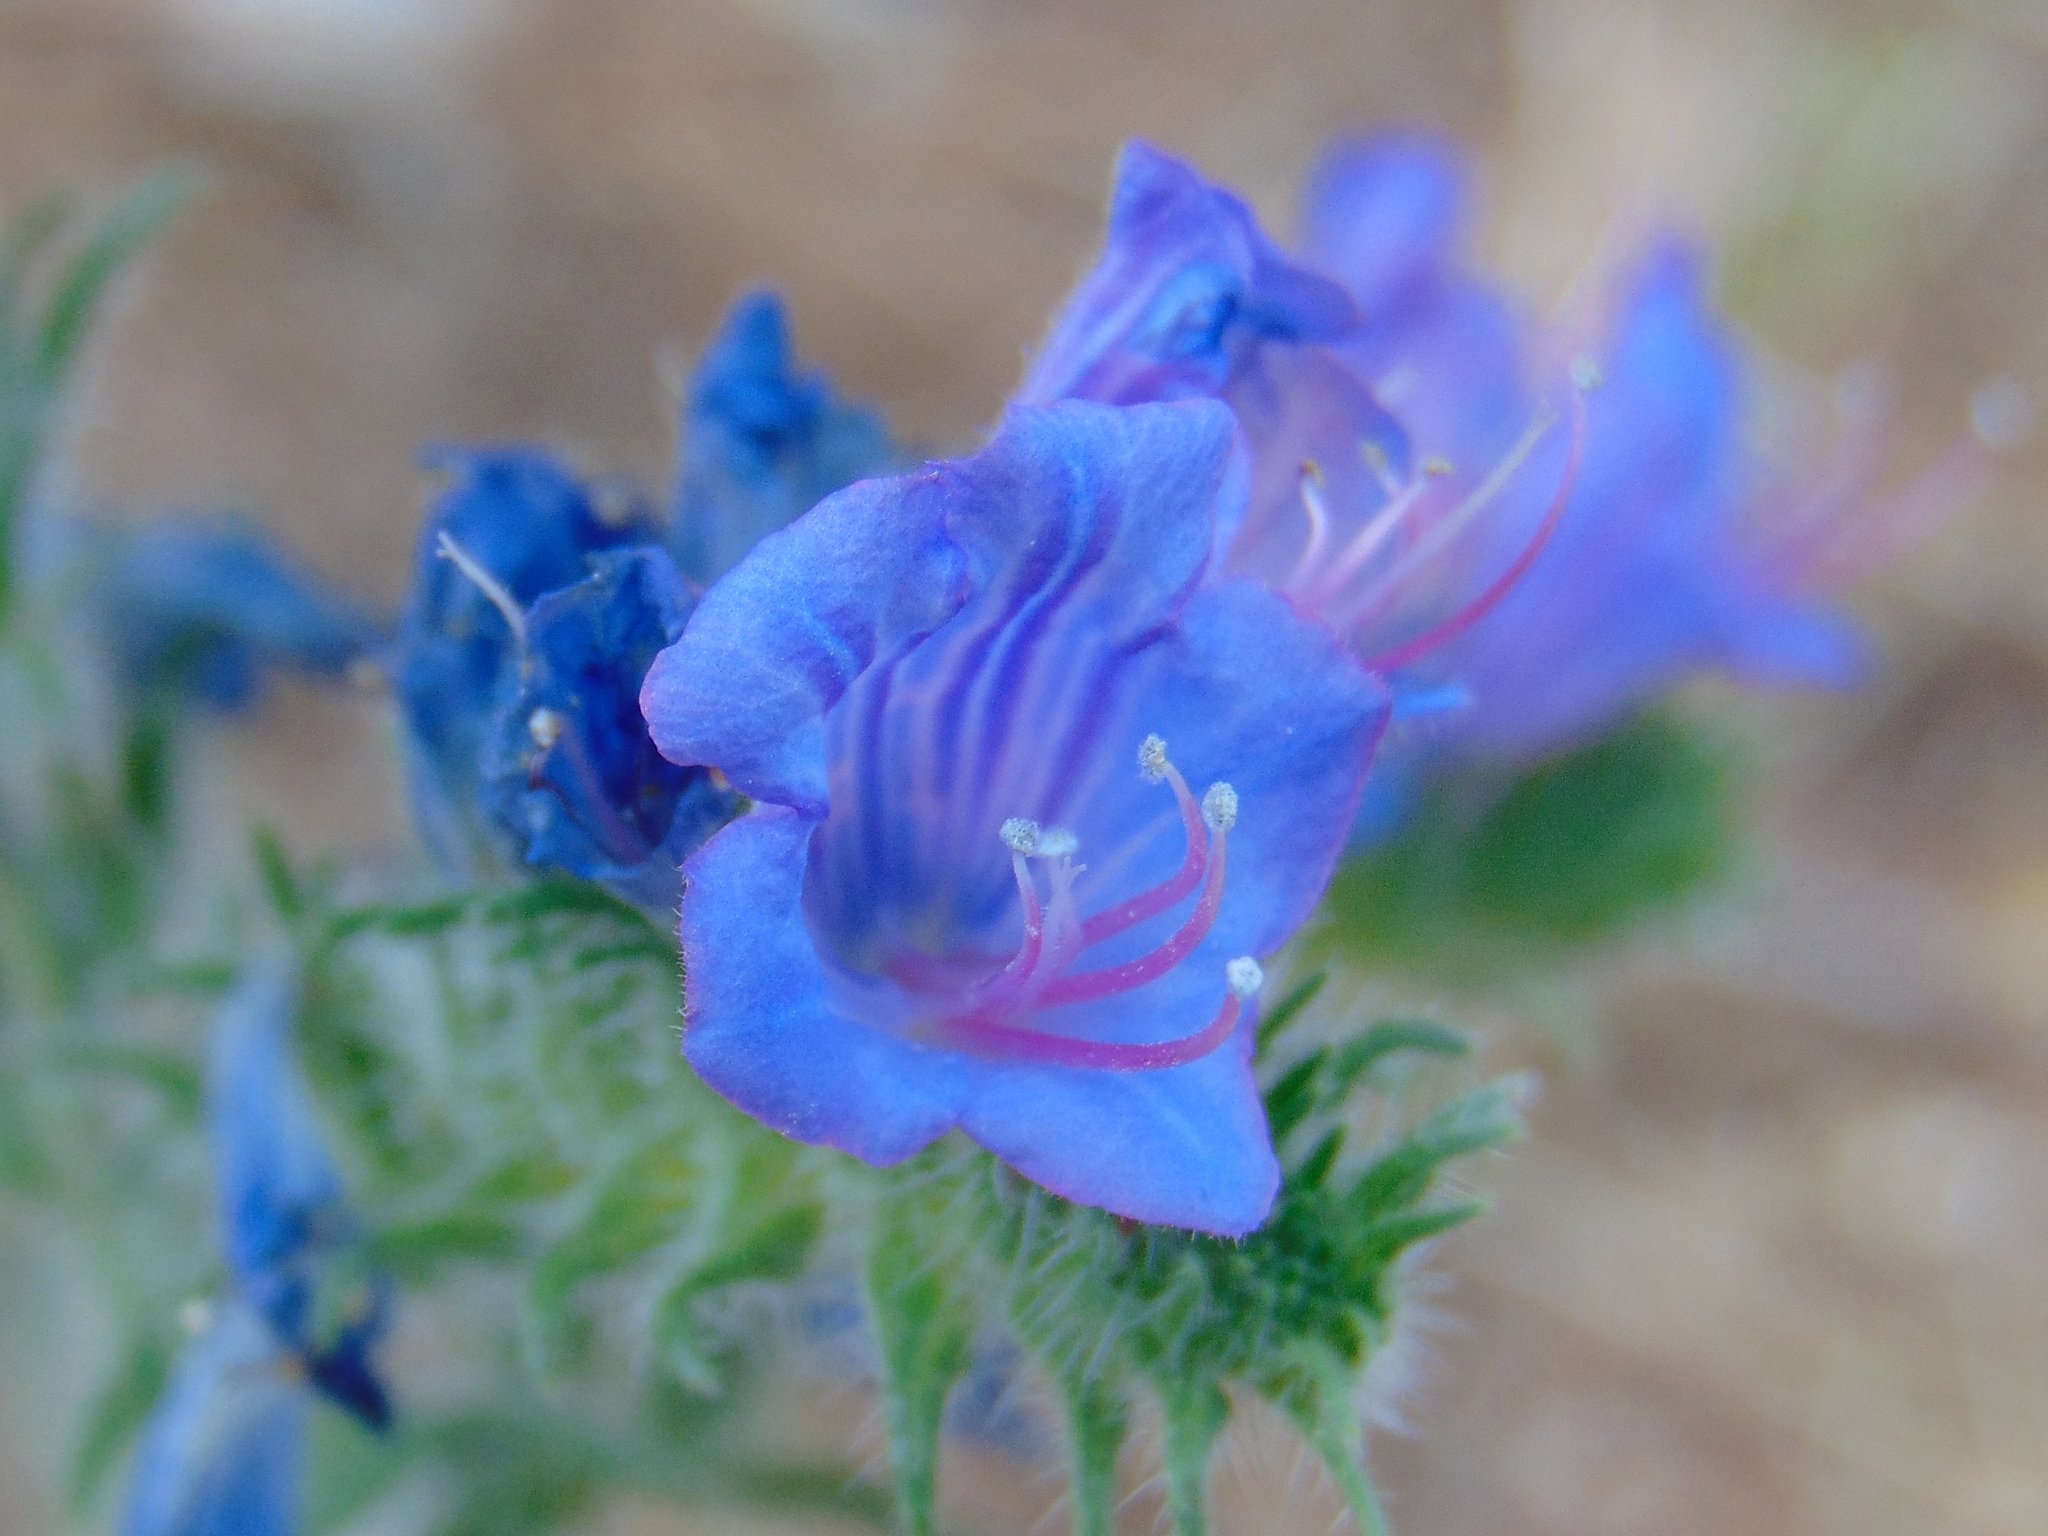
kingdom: Plantae
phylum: Tracheophyta
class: Magnoliopsida
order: Boraginales
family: Boraginaceae
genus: Echium
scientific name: Echium vulgare
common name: Common viper's bugloss
